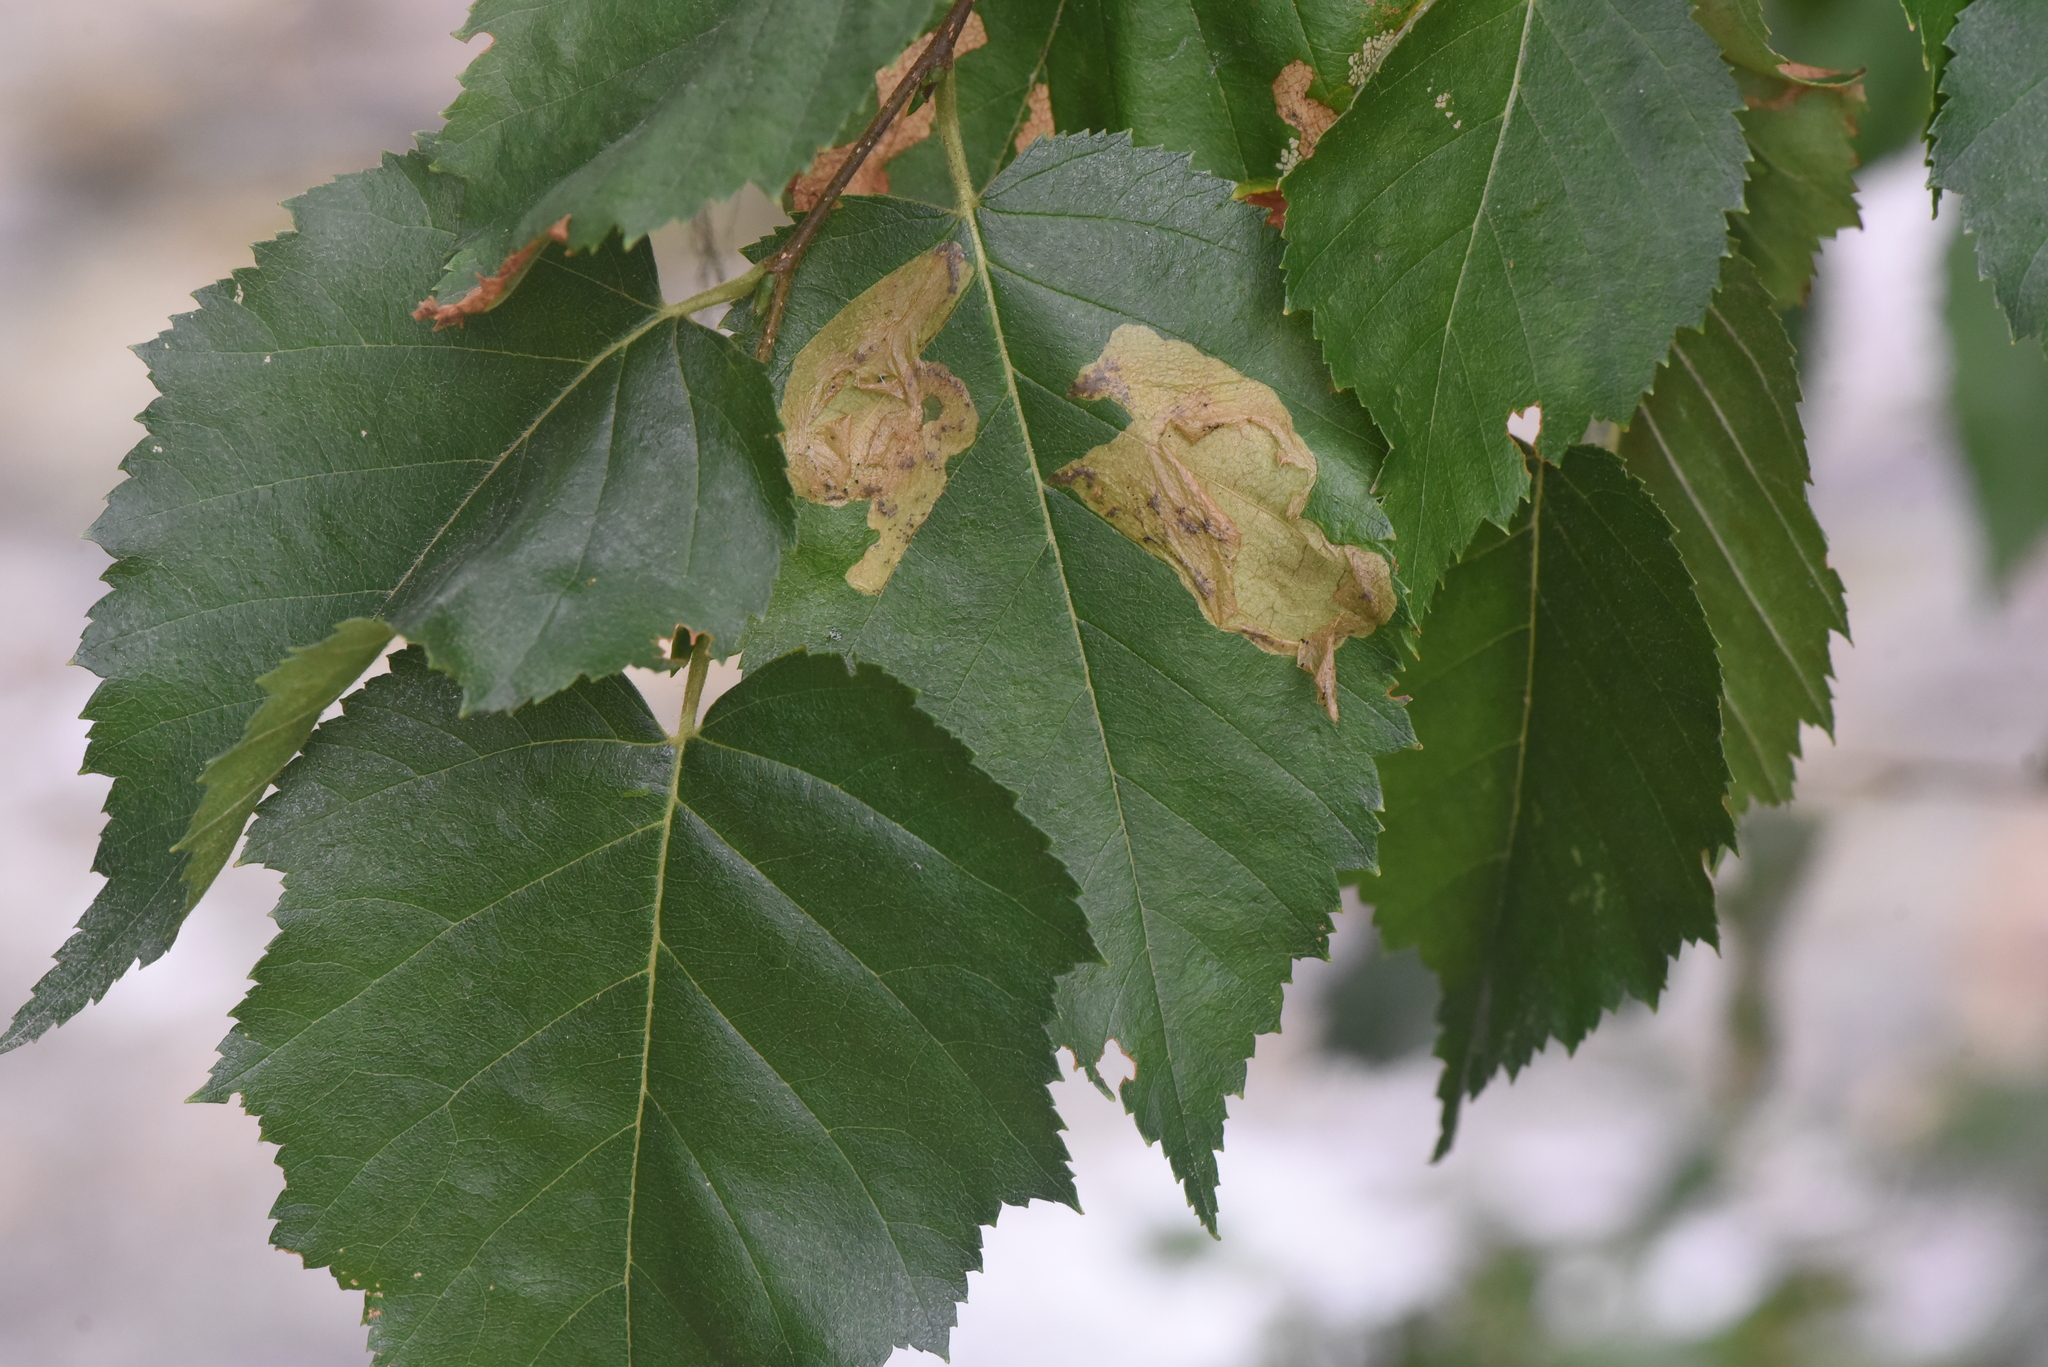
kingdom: Animalia
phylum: Arthropoda
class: Insecta
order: Hymenoptera
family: Tenthredinidae
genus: Profenusa
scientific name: Profenusa thomsoni
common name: Amber-marked birch leafminer
